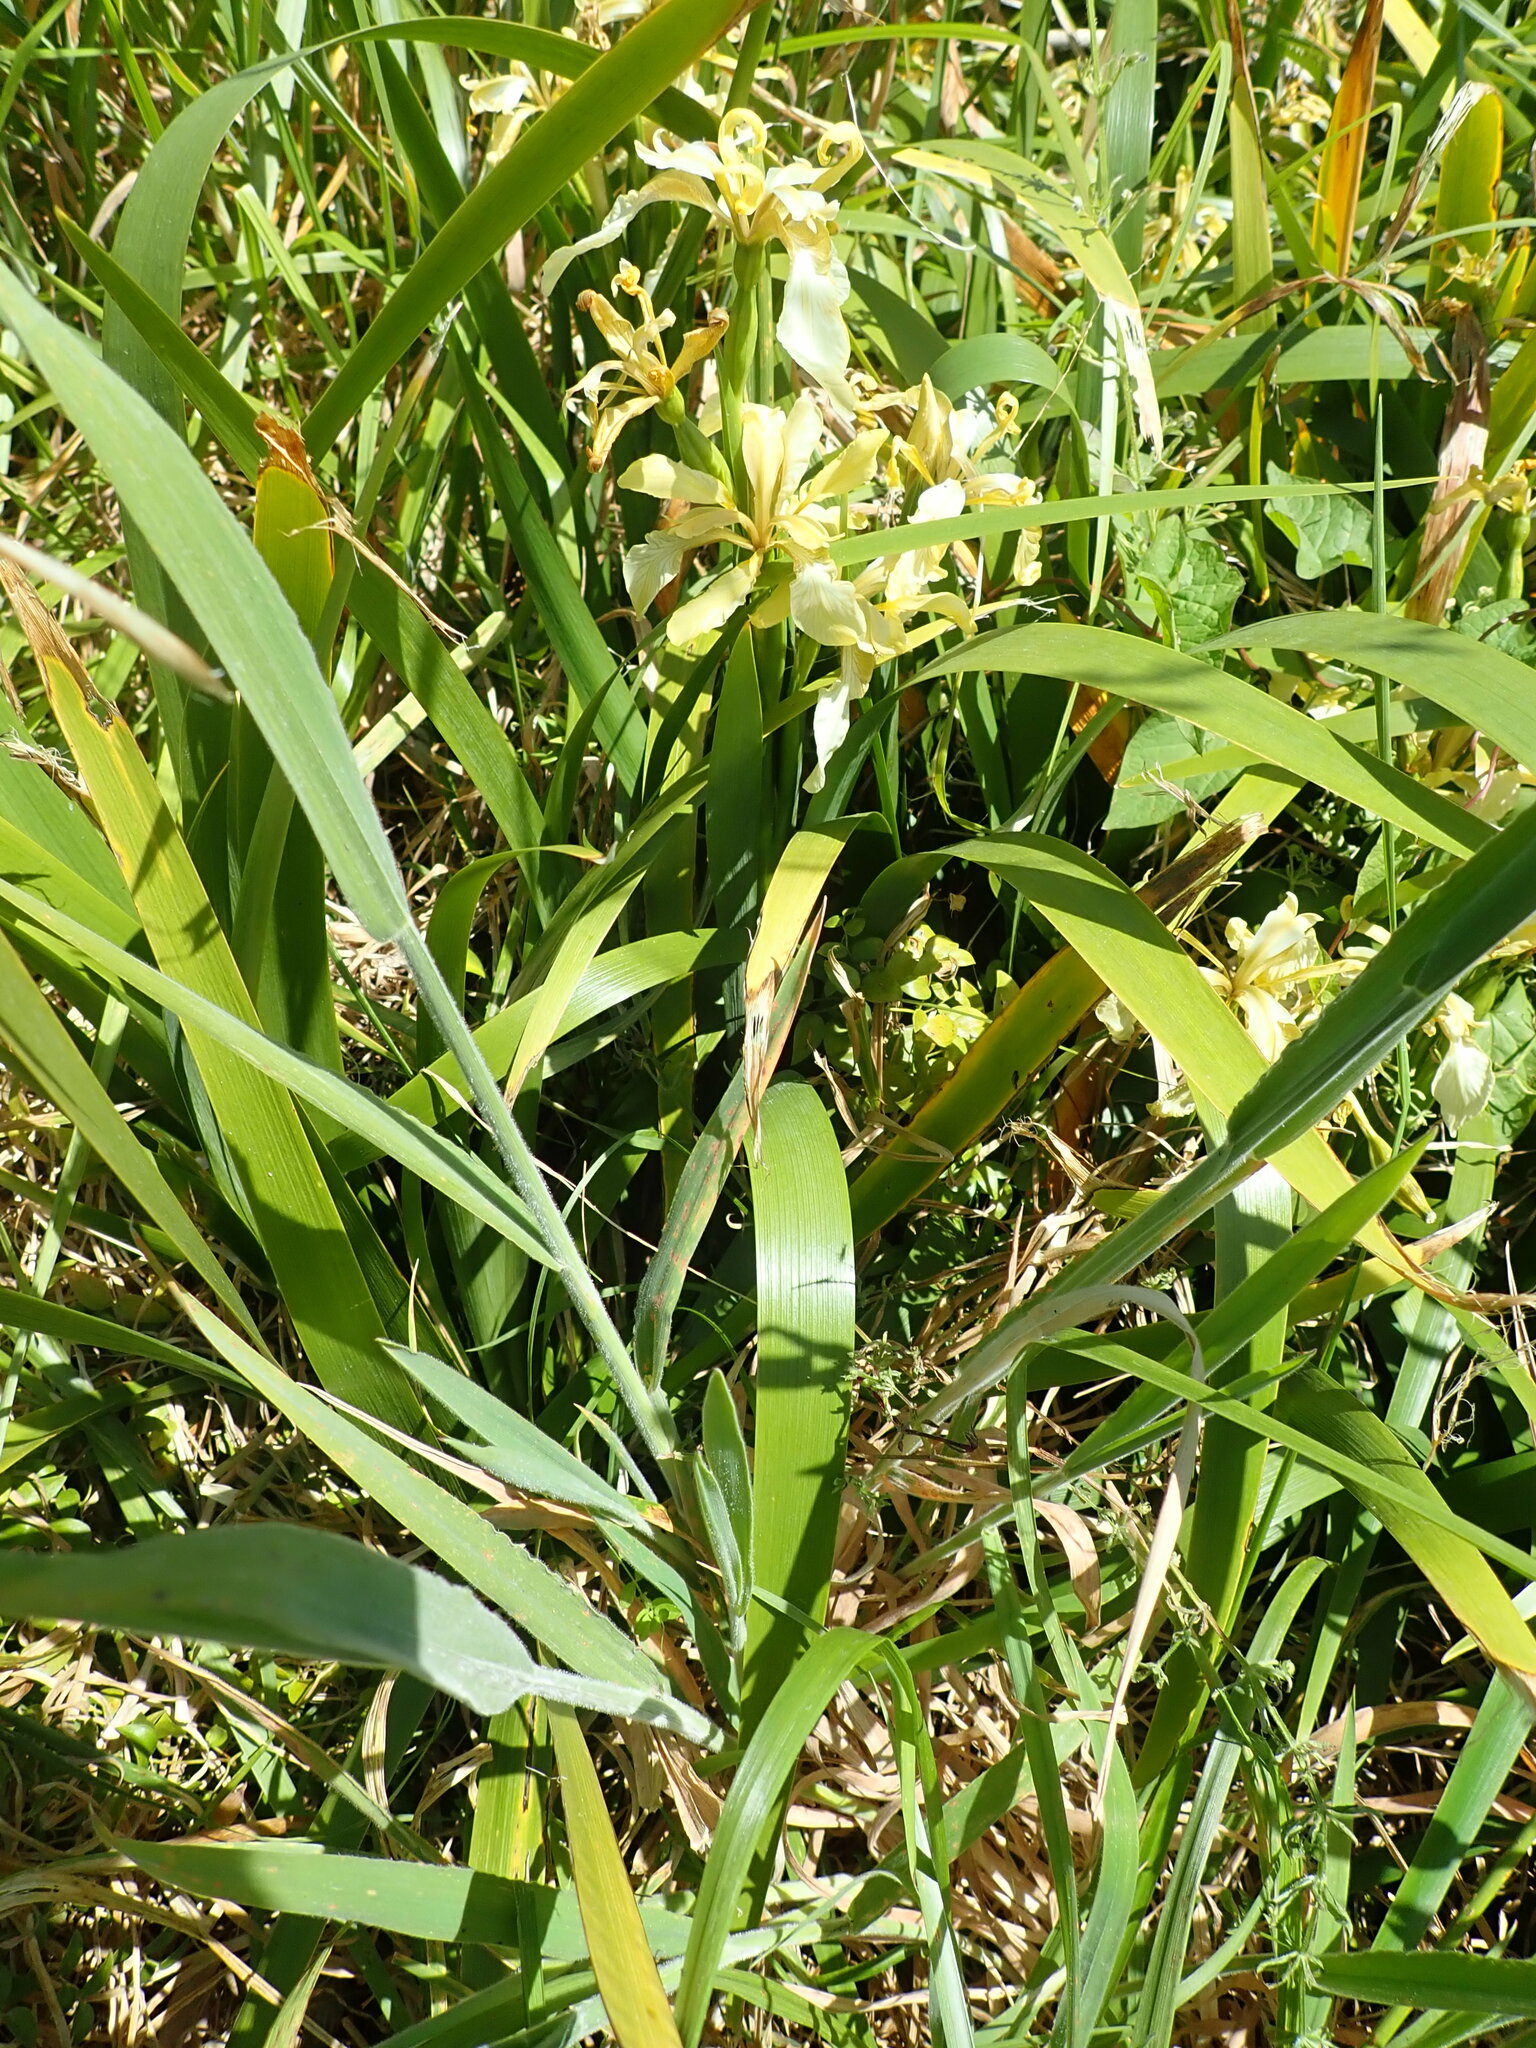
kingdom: Plantae
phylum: Tracheophyta
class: Liliopsida
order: Asparagales
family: Iridaceae
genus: Iris
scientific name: Iris foetidissima
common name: Stinking iris
